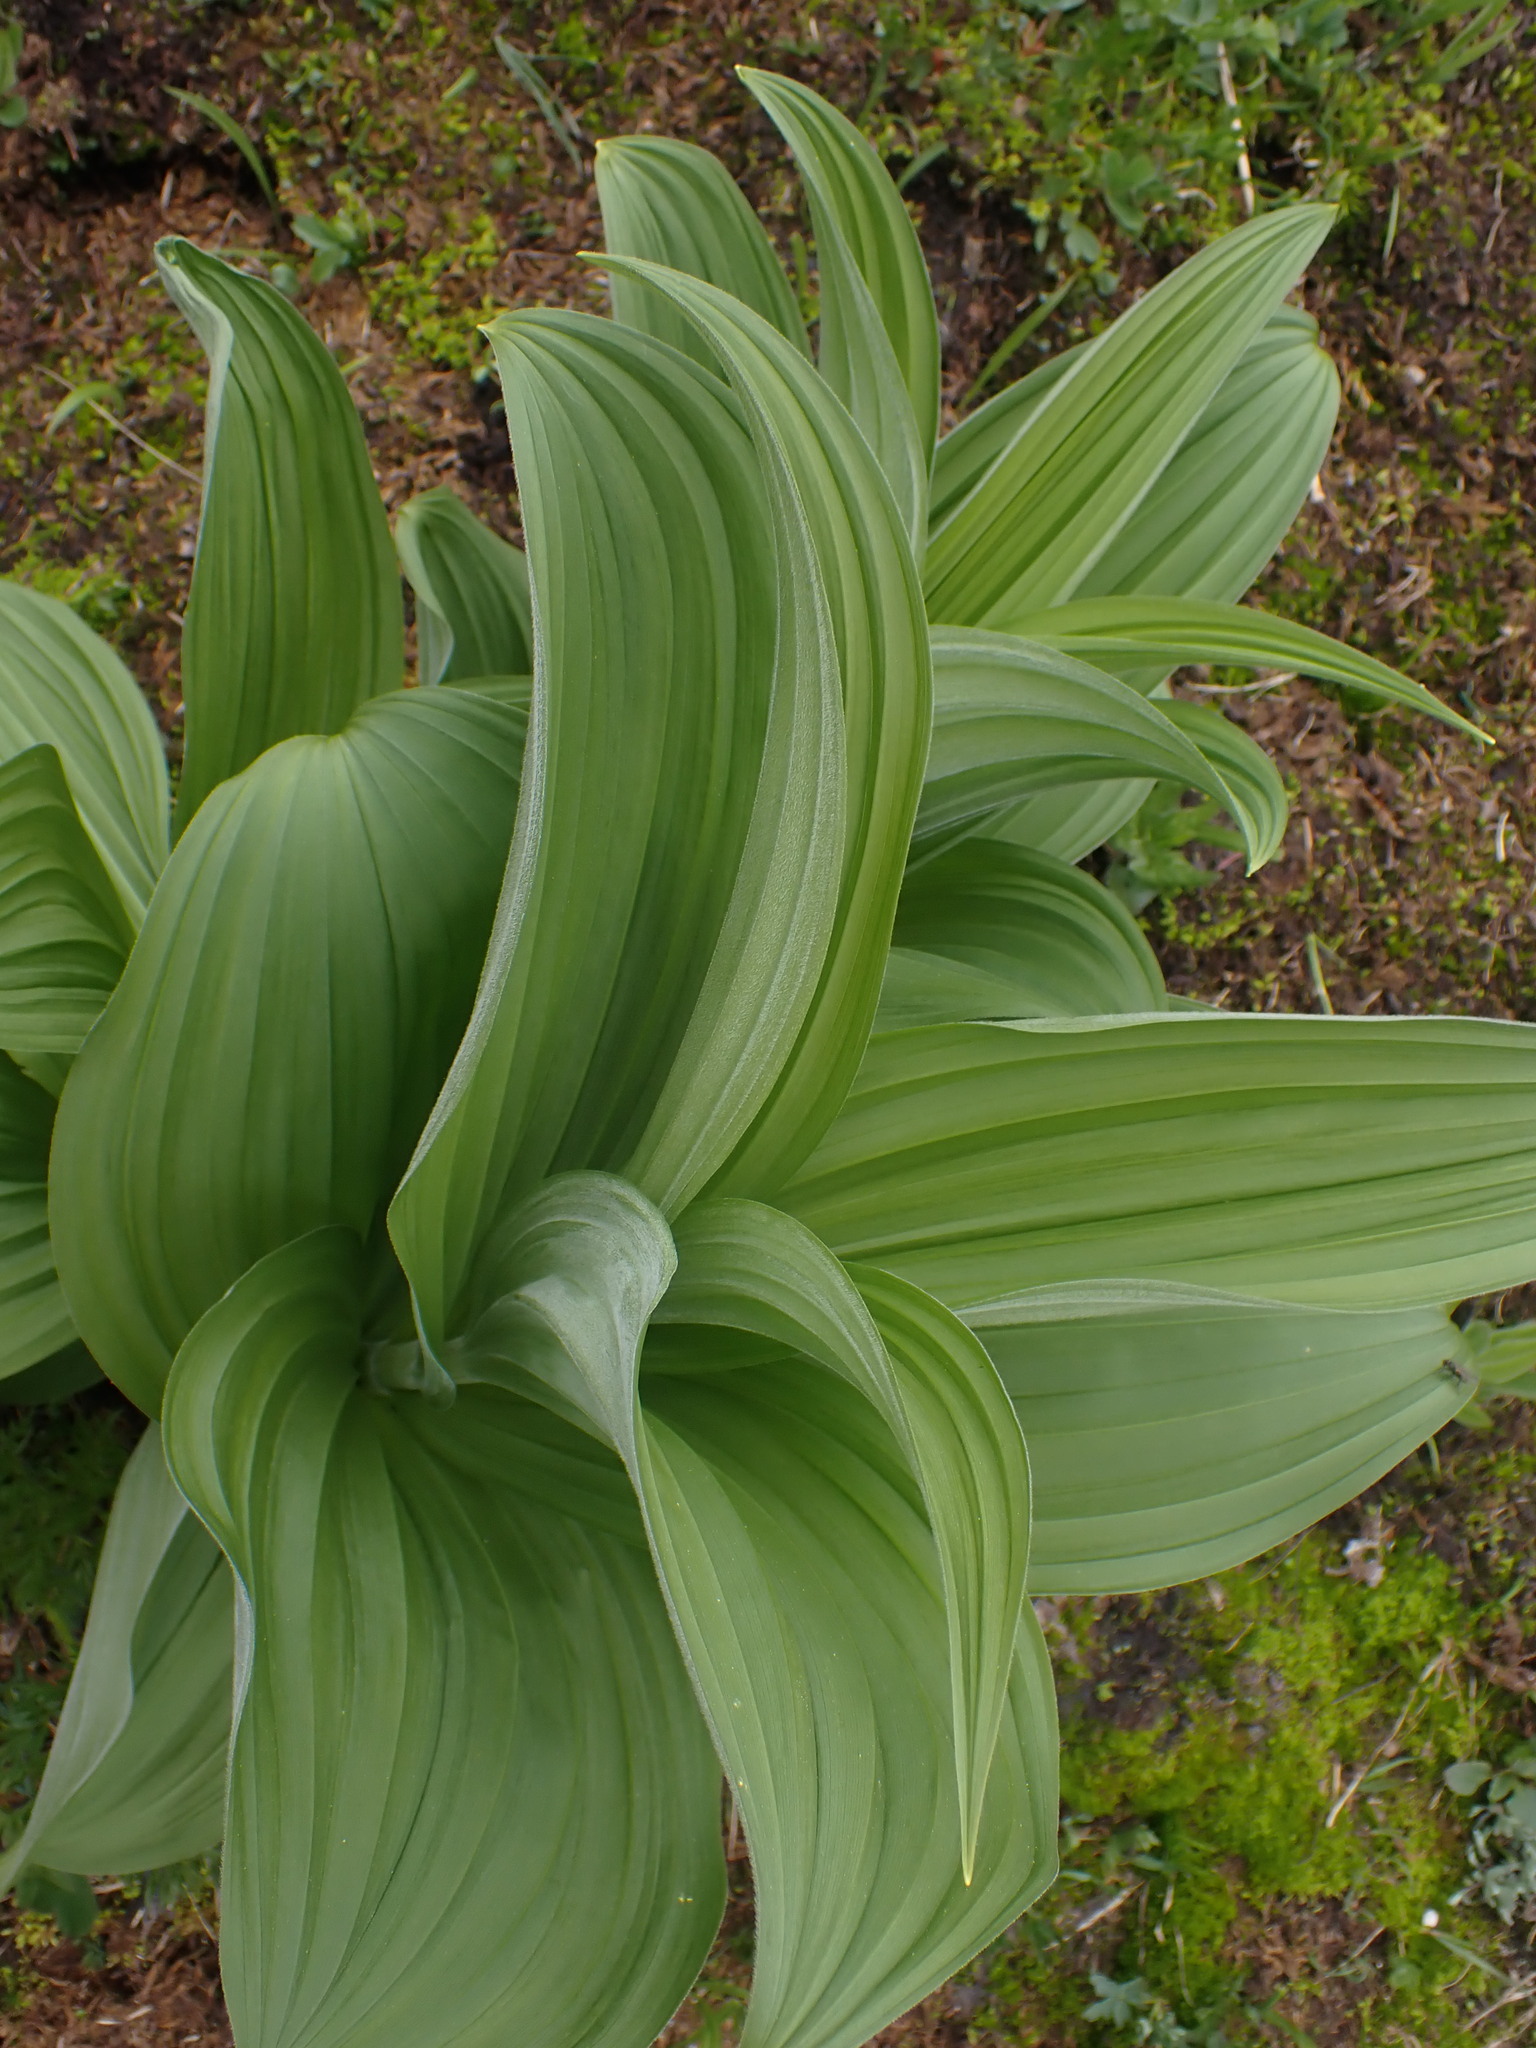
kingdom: Plantae
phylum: Tracheophyta
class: Liliopsida
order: Liliales
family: Melanthiaceae
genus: Veratrum
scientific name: Veratrum viride
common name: American false hellebore
